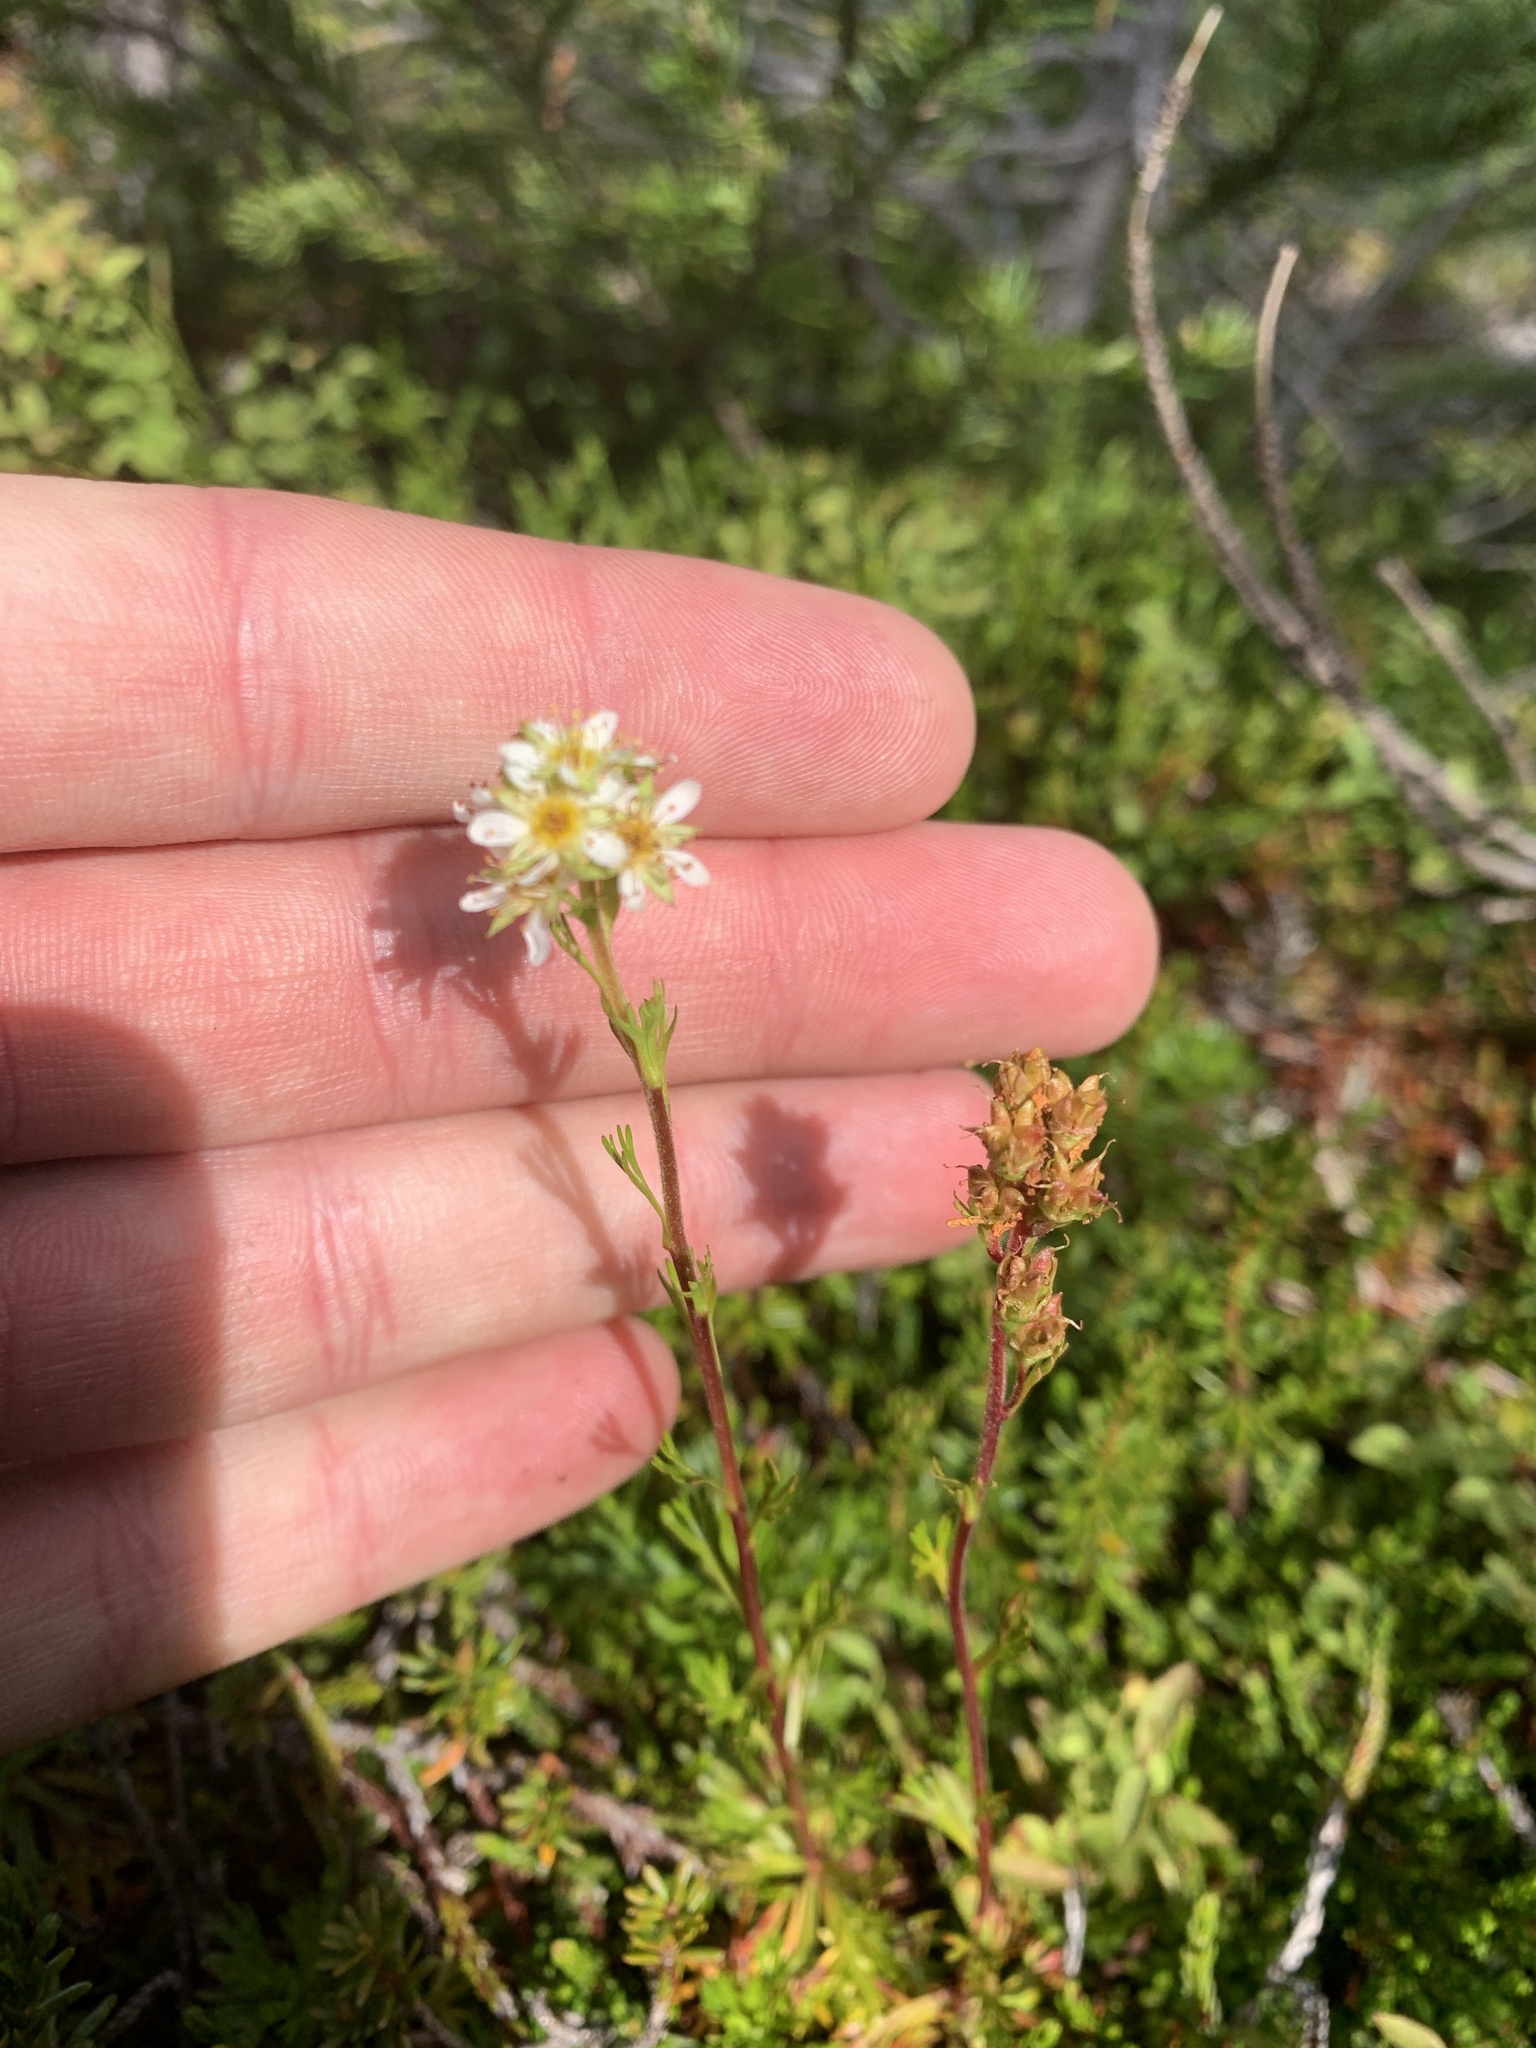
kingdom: Plantae
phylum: Tracheophyta
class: Magnoliopsida
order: Rosales
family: Rosaceae
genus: Luetkea
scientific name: Luetkea pectinata
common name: Partridgefoot
